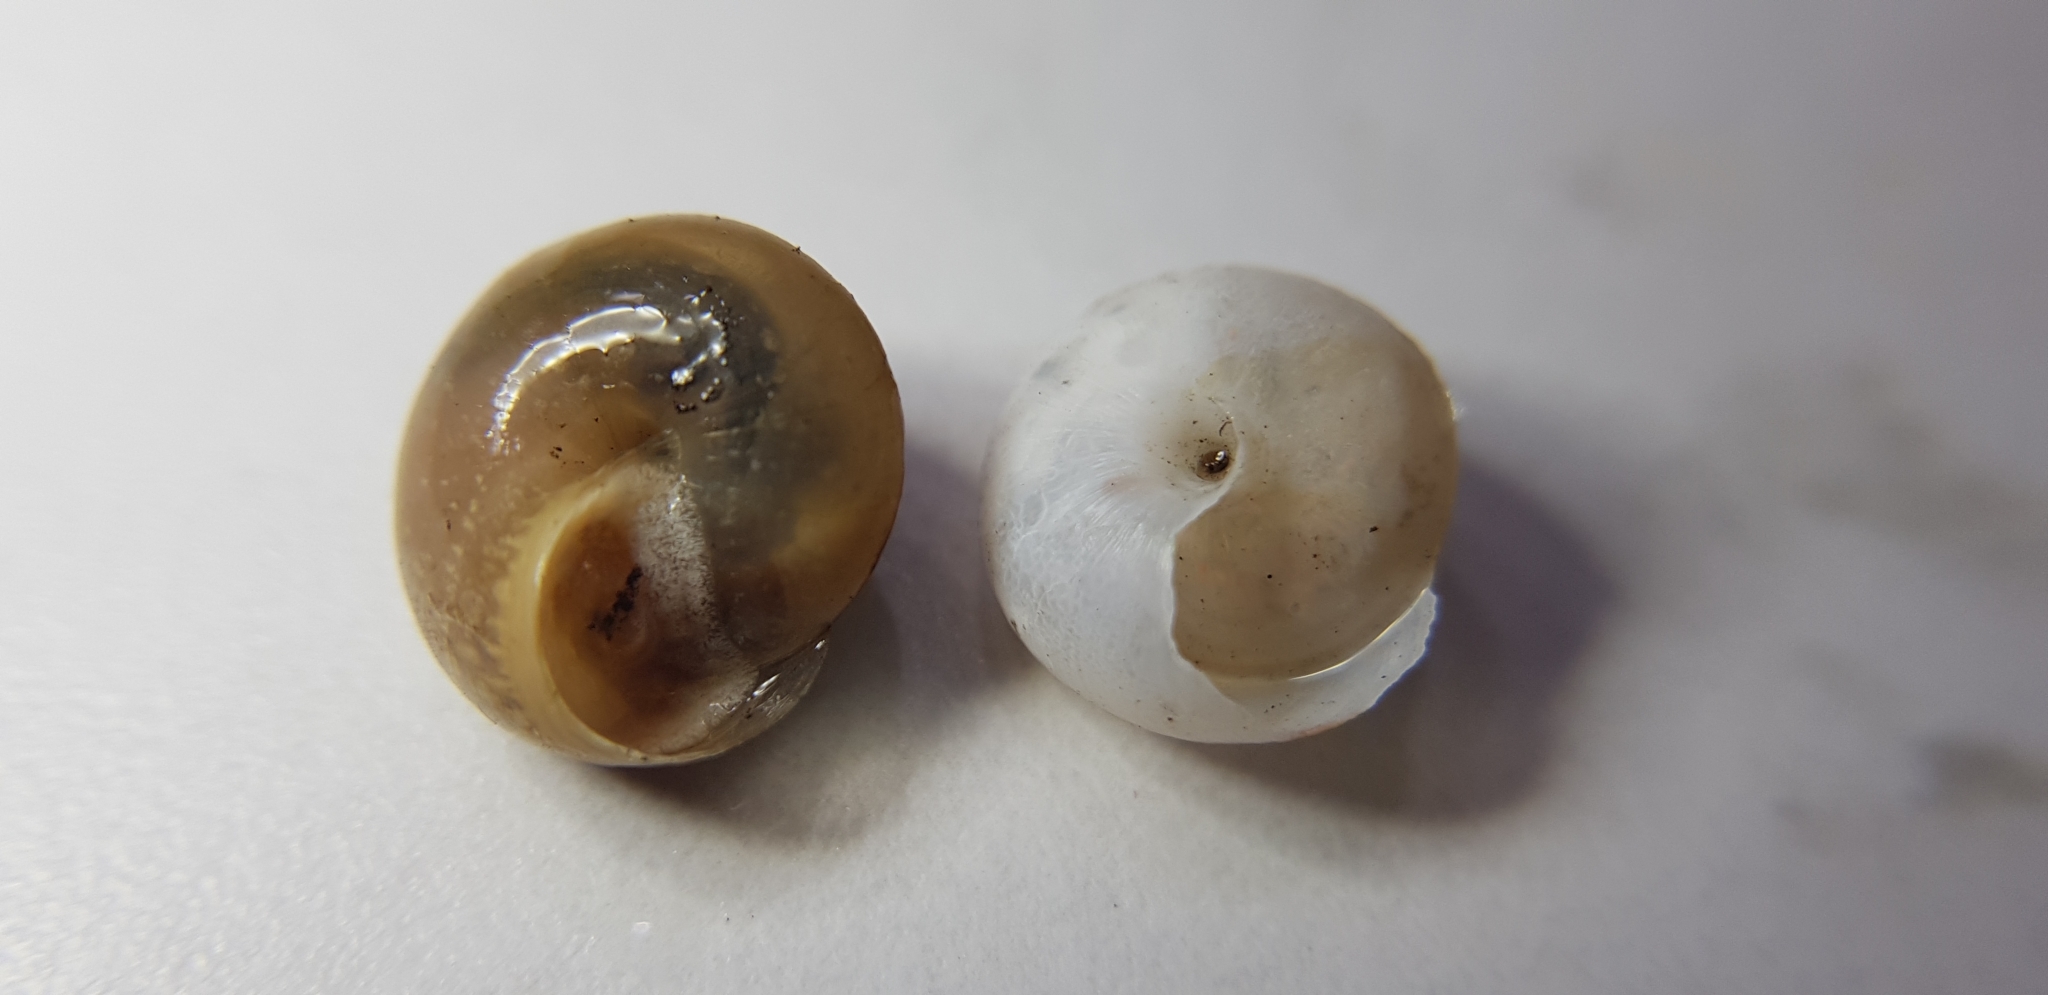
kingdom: Animalia
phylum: Mollusca
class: Gastropoda
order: Stylommatophora
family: Camaenidae
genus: Bradybaena
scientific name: Bradybaena similaris
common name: Asian trampsnail
